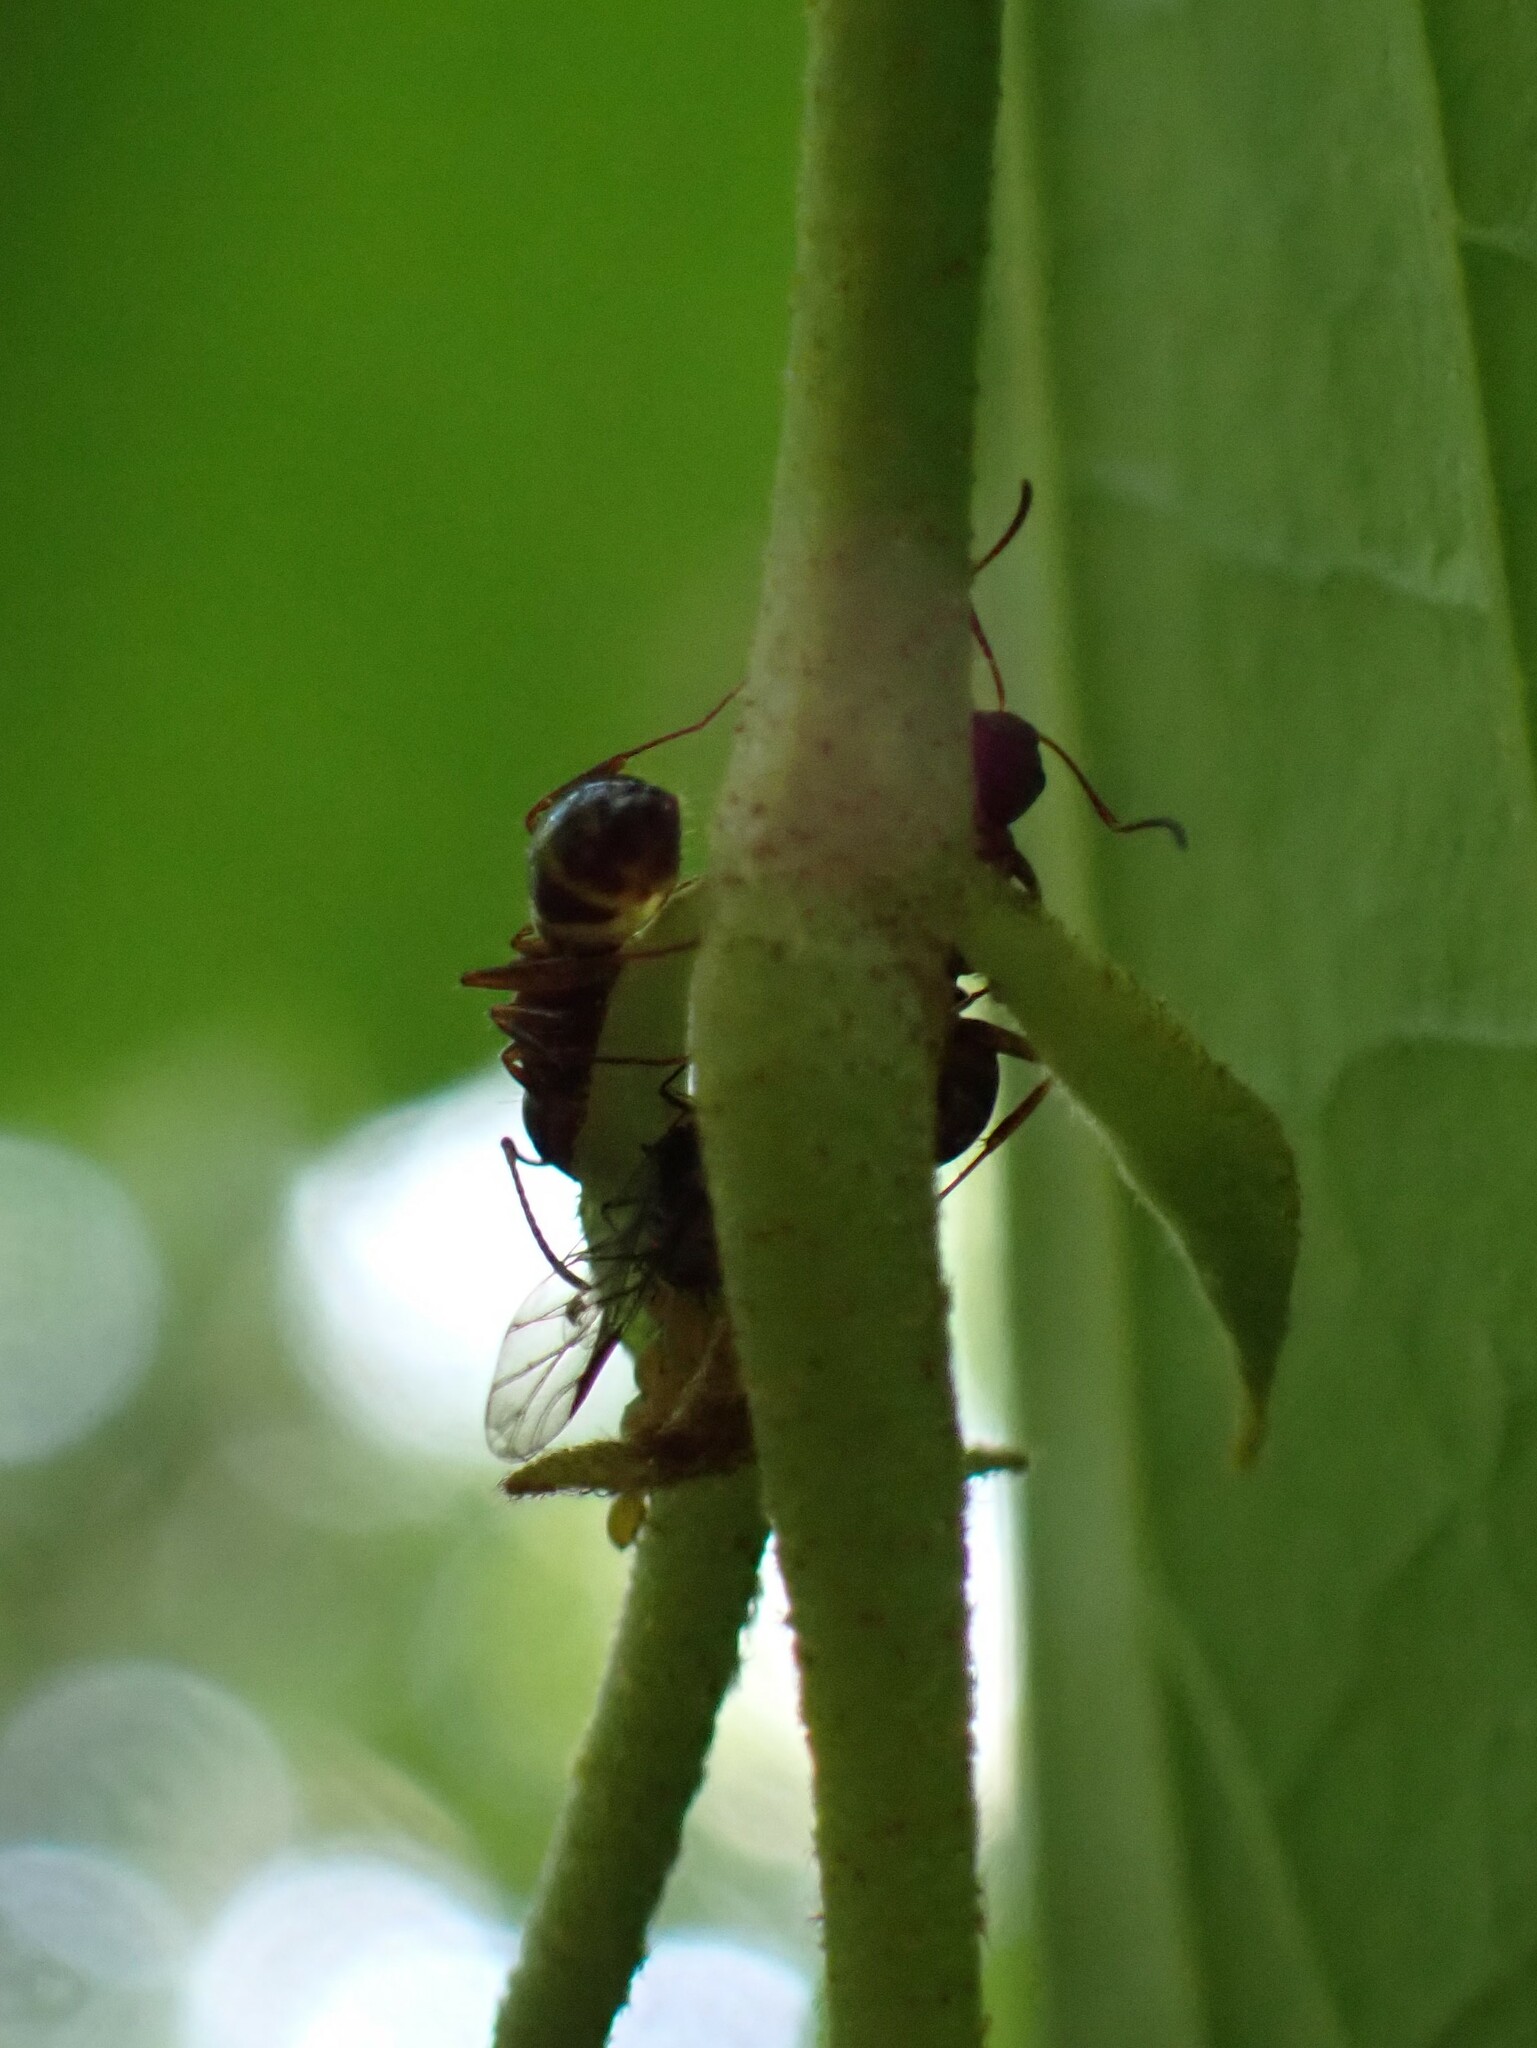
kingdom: Animalia
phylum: Arthropoda
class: Insecta
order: Hymenoptera
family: Formicidae
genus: Camponotus
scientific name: Camponotus subbarbatus
